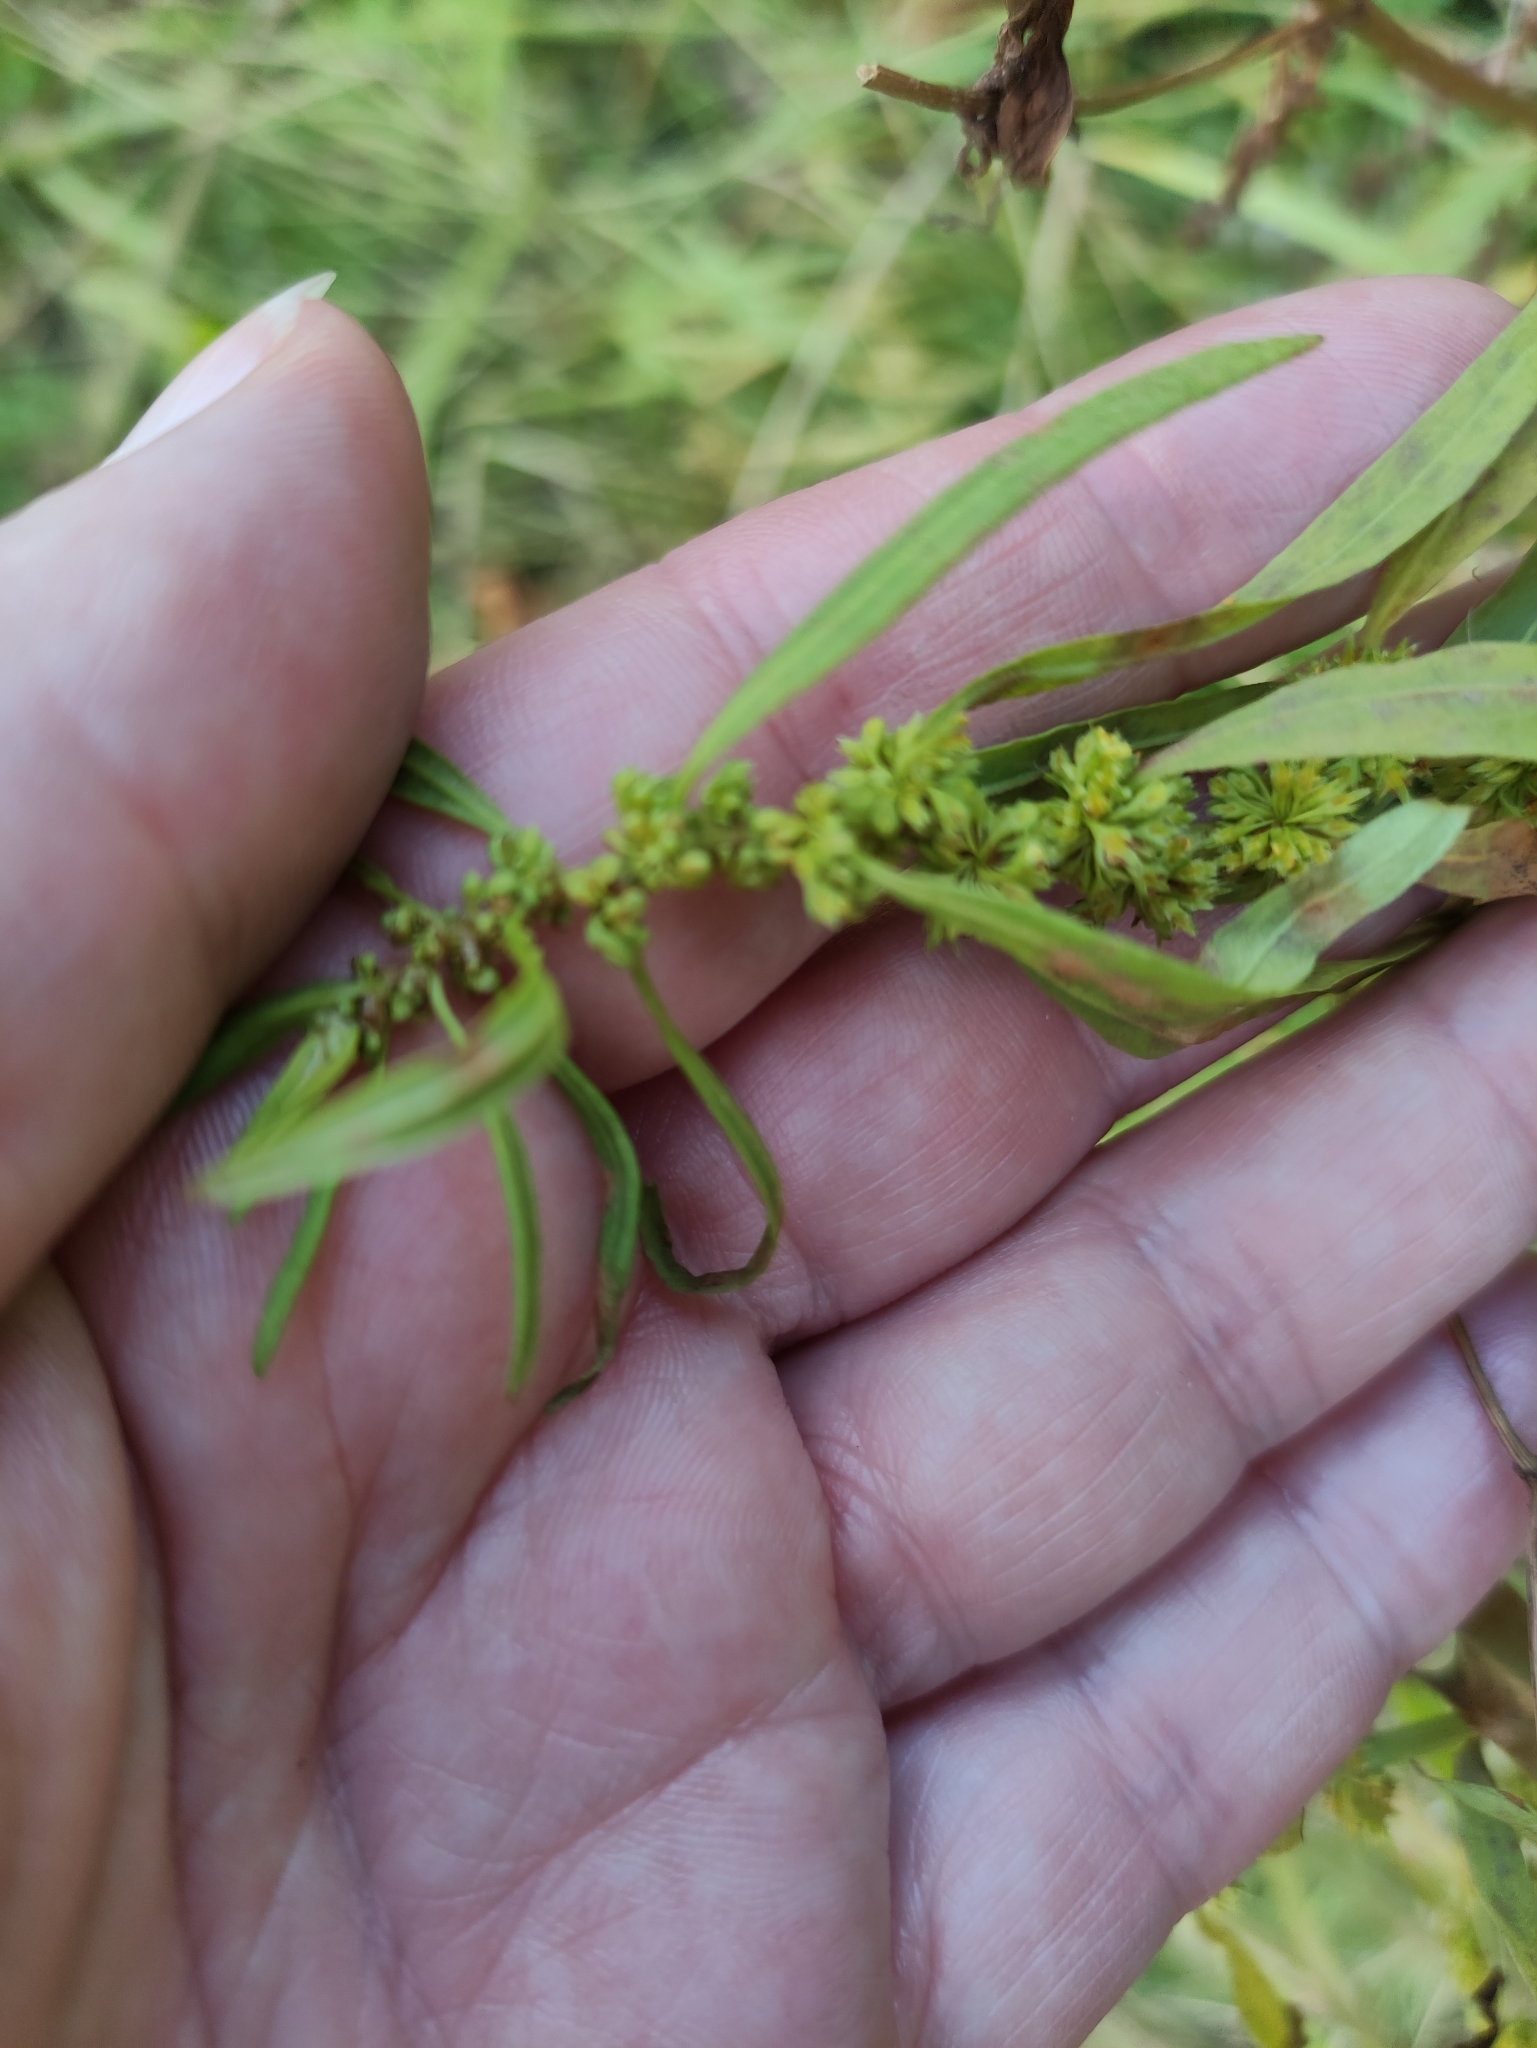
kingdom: Plantae
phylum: Tracheophyta
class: Magnoliopsida
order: Caryophyllales
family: Polygonaceae
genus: Rumex
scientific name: Rumex maritimus
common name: Golden dock
